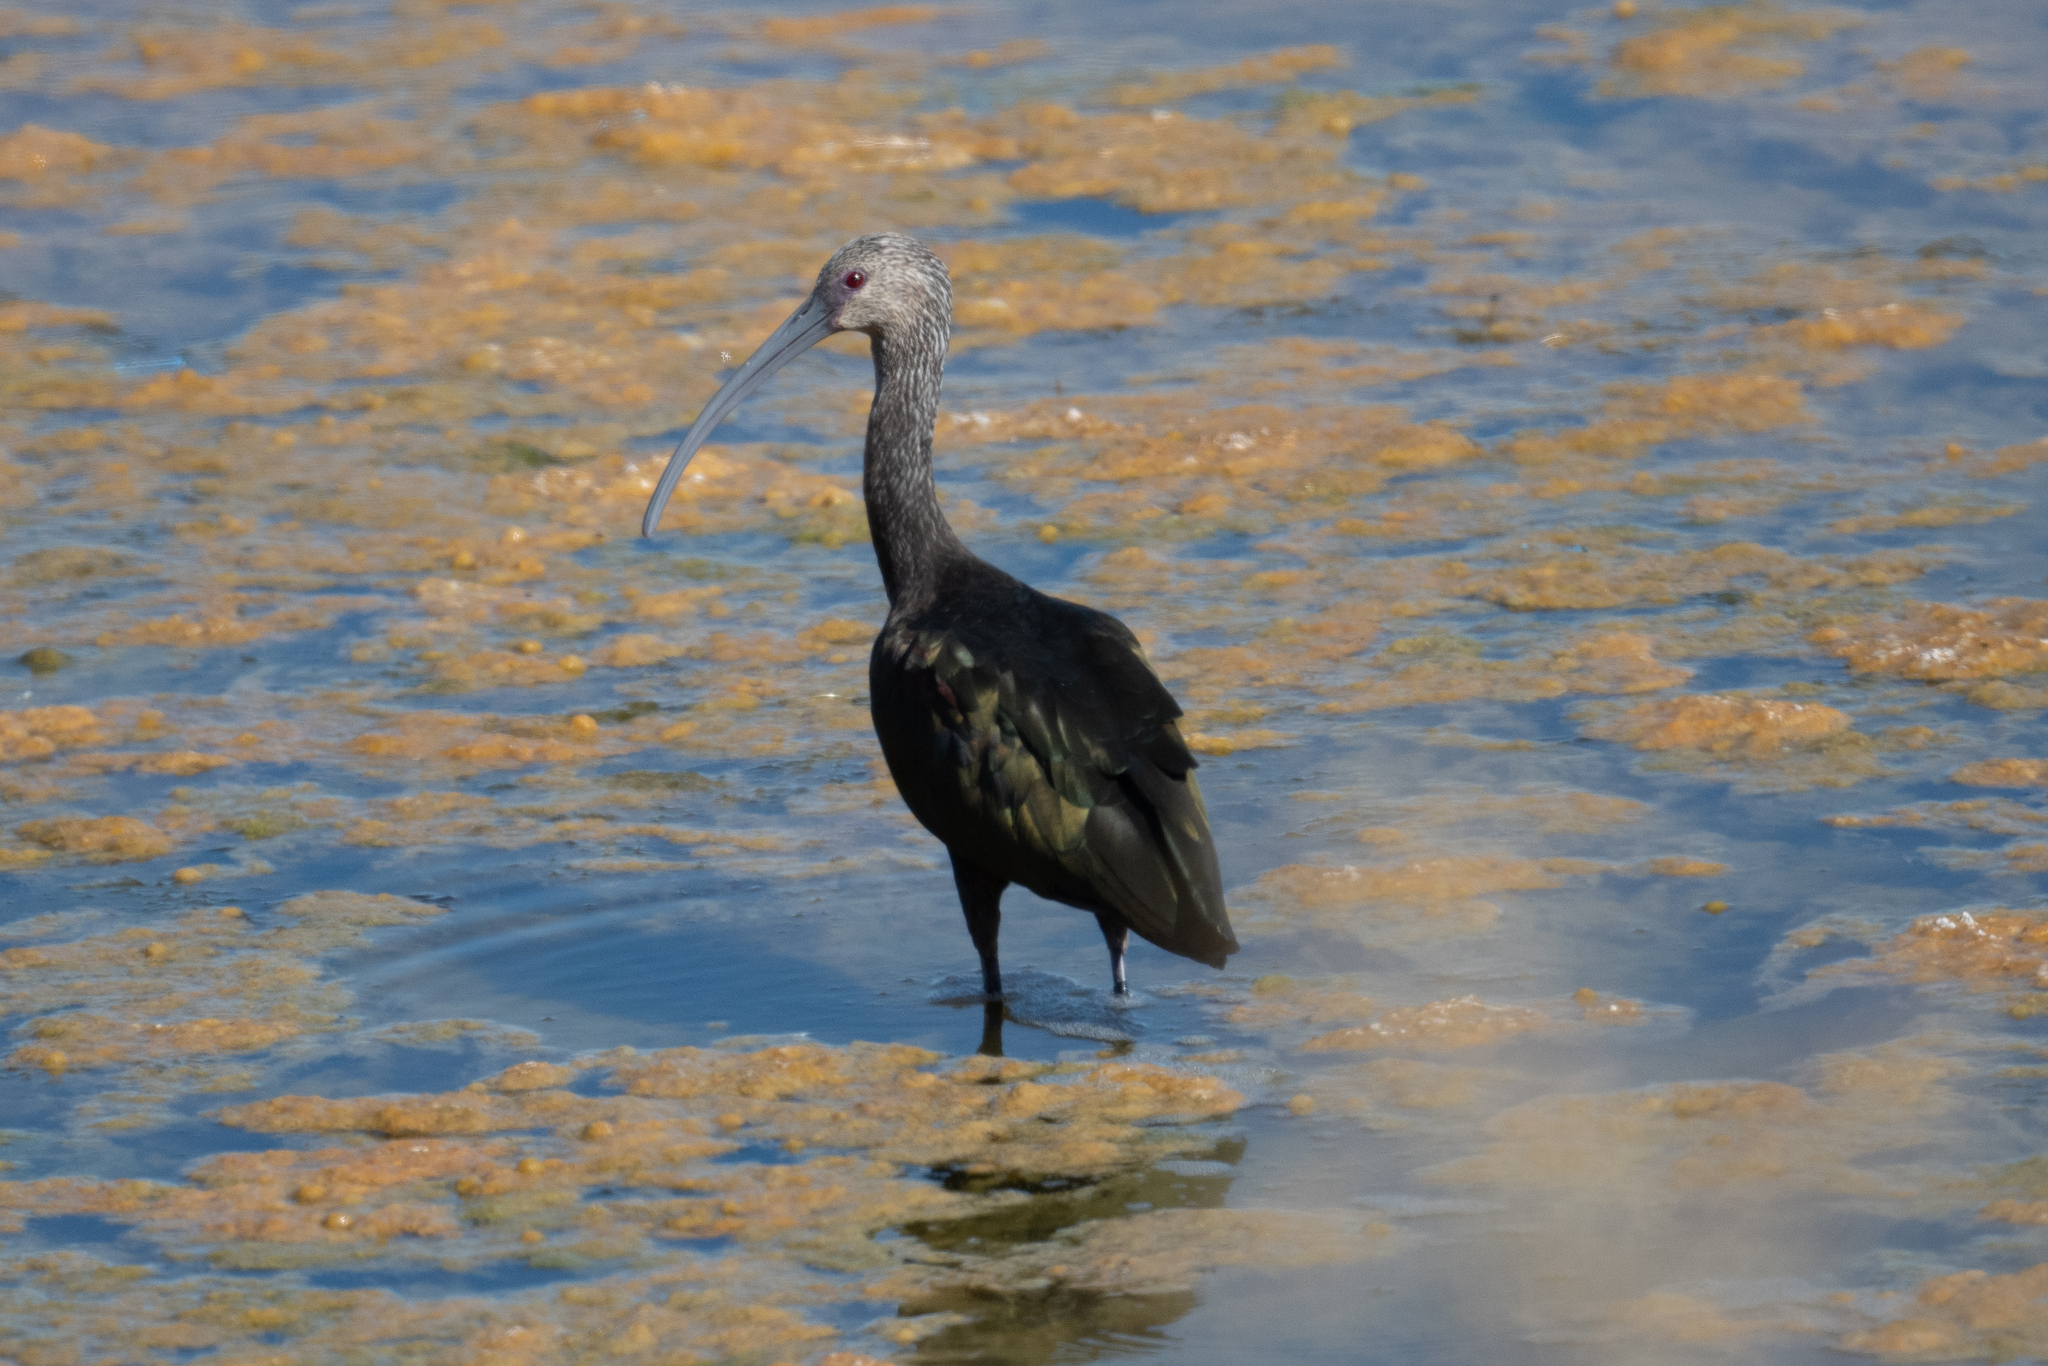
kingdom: Animalia
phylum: Chordata
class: Aves
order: Pelecaniformes
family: Threskiornithidae
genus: Plegadis
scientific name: Plegadis chihi
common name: White-faced ibis
